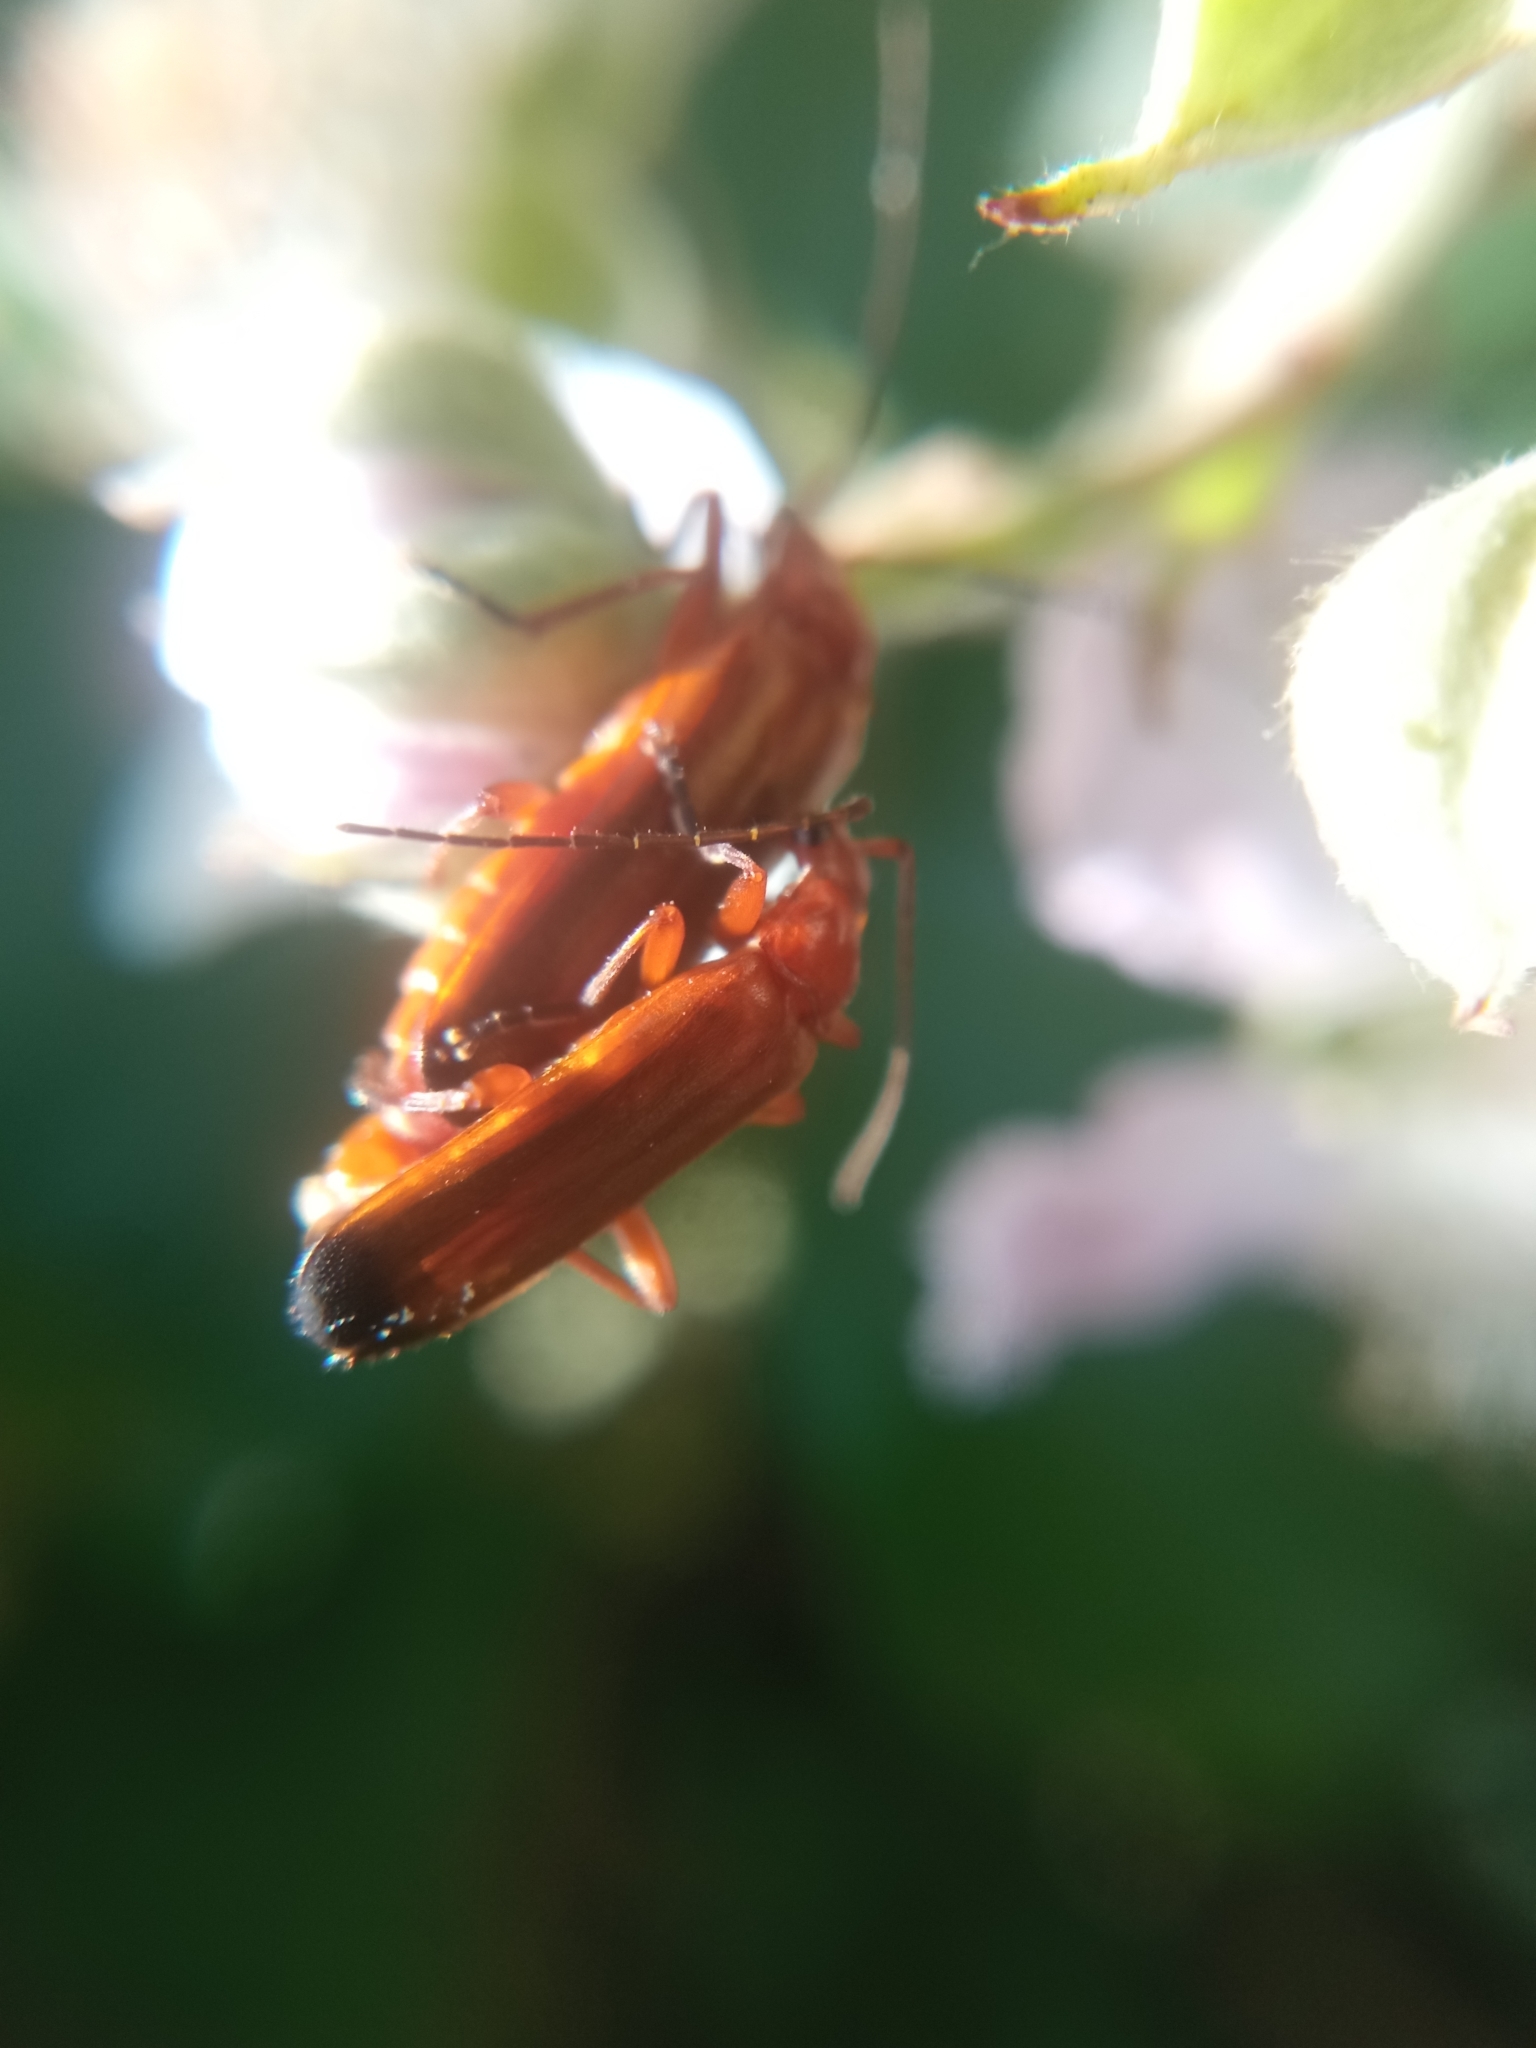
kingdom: Animalia
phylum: Arthropoda
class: Insecta
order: Coleoptera
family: Cantharidae
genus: Rhagonycha
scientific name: Rhagonycha fulva
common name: Common red soldier beetle
